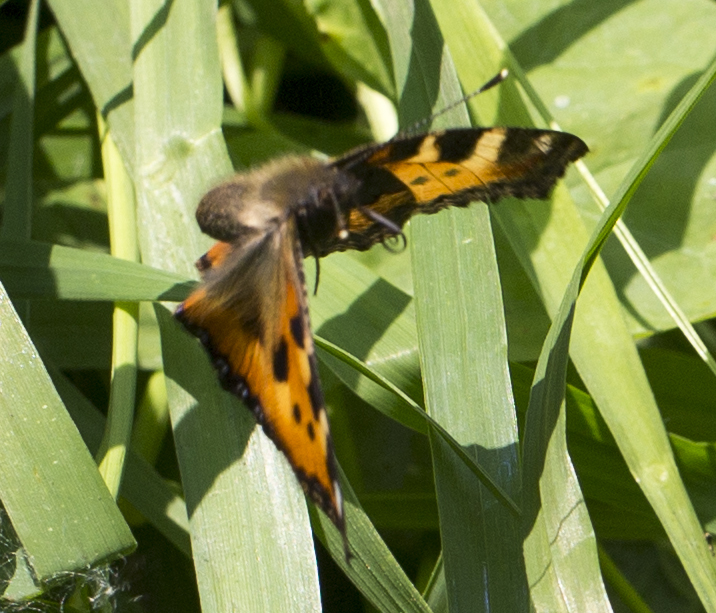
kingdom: Animalia
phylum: Arthropoda
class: Insecta
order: Lepidoptera
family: Nymphalidae
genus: Aglais
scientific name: Aglais urticae
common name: Small tortoiseshell
